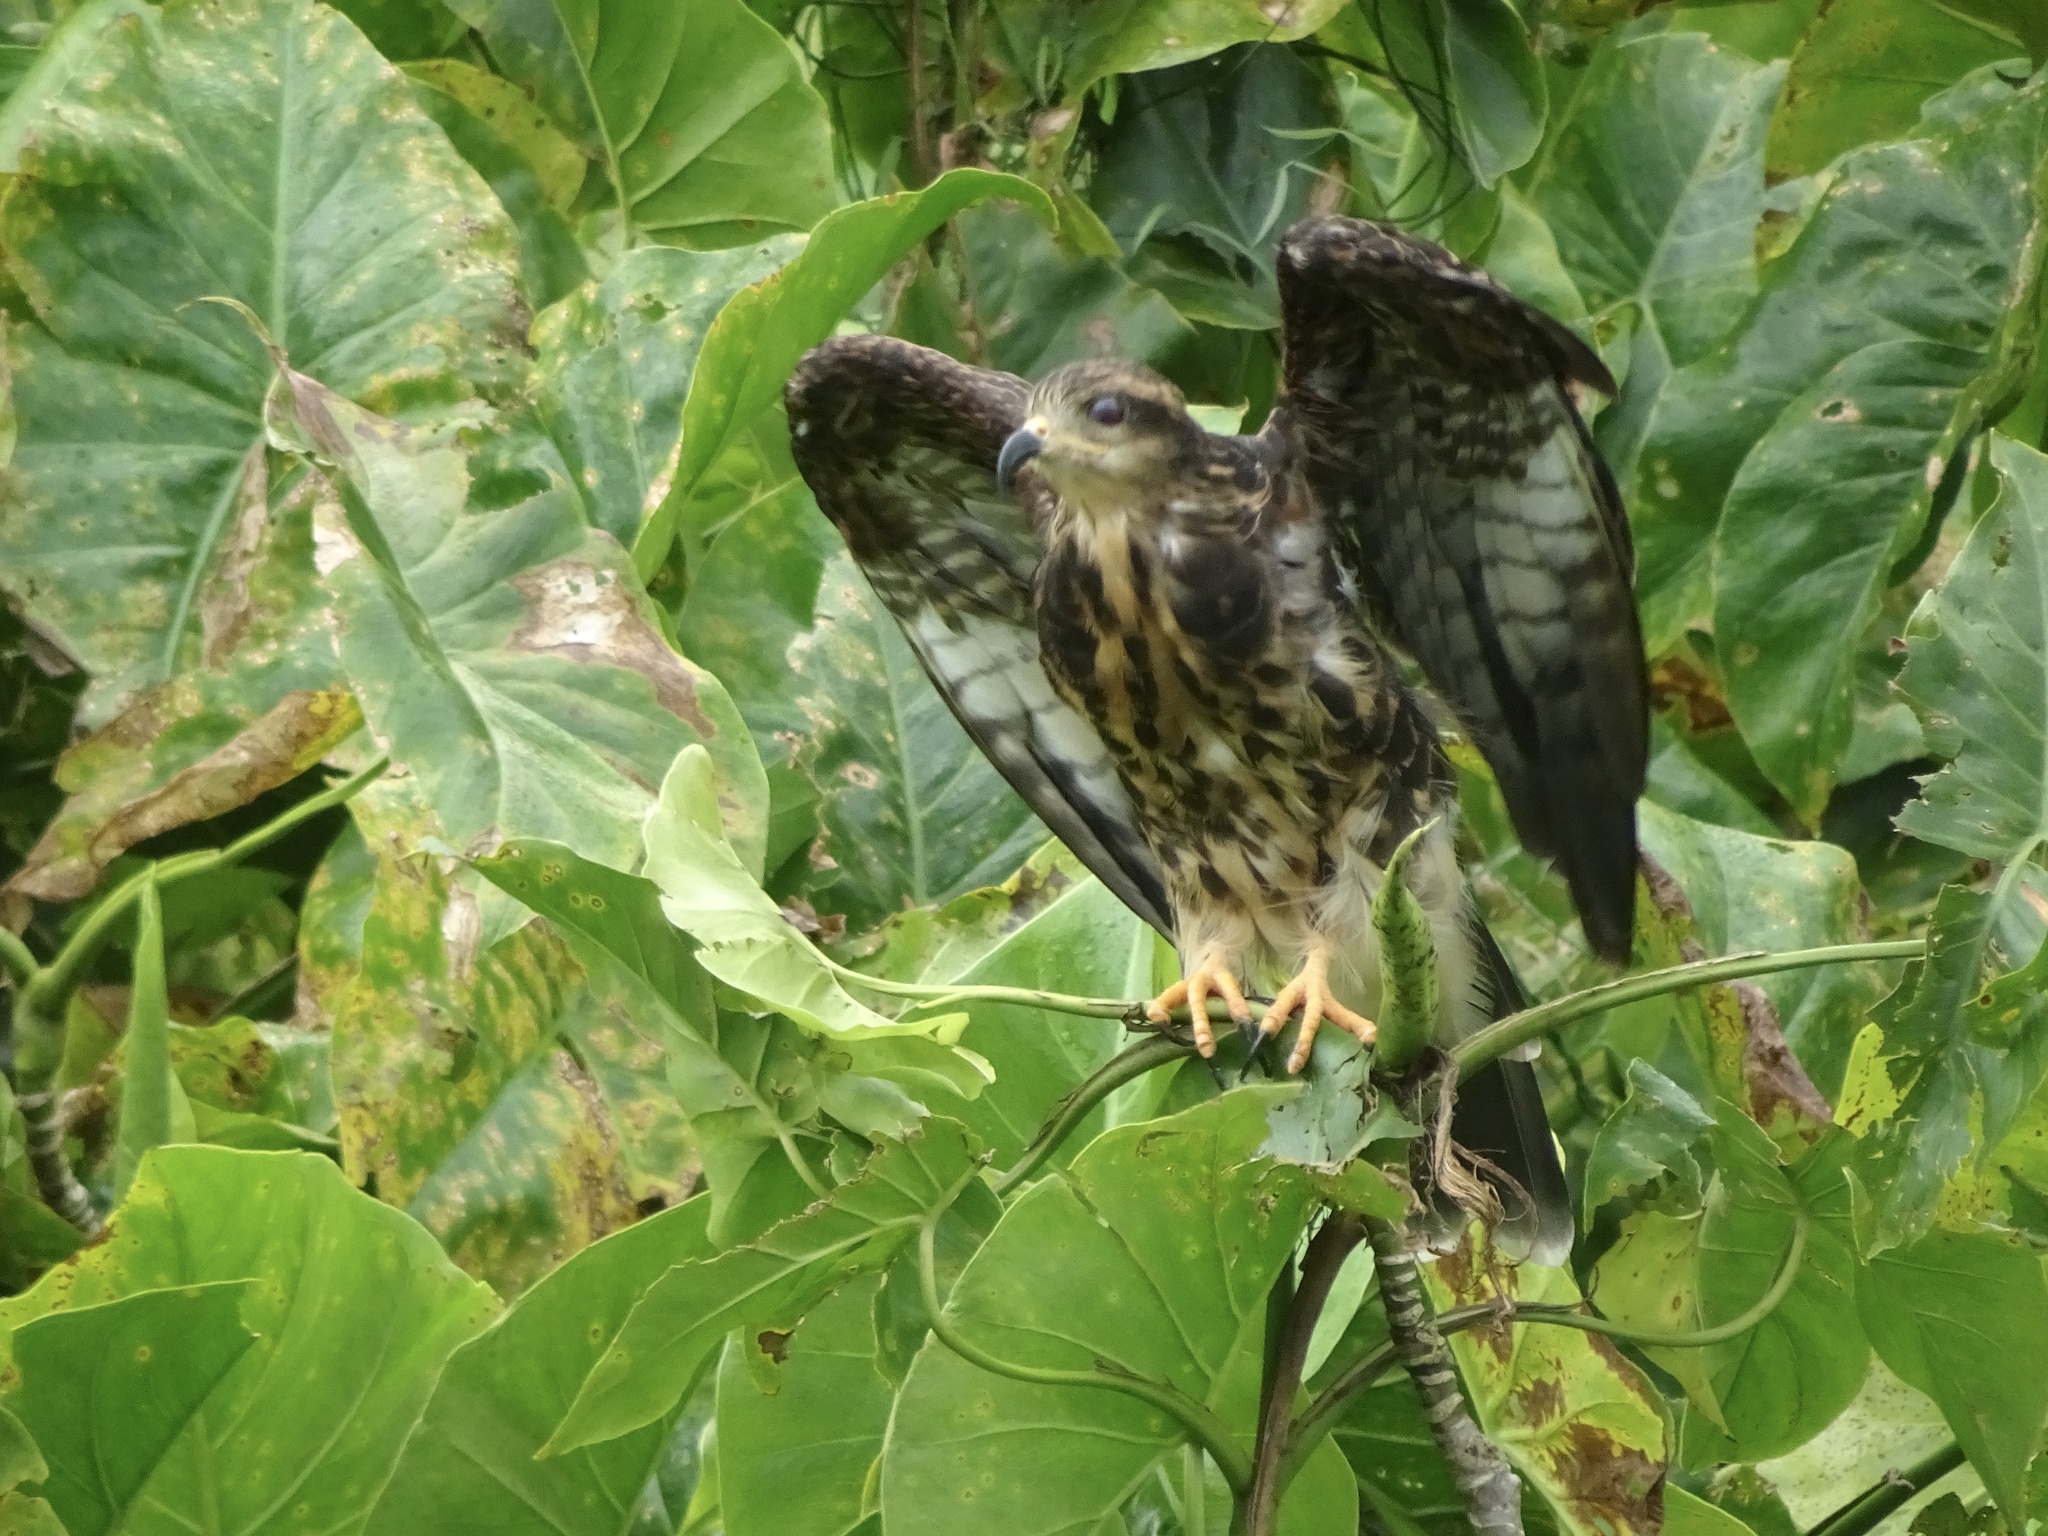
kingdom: Animalia
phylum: Chordata
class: Aves
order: Accipitriformes
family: Accipitridae
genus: Rostrhamus
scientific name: Rostrhamus sociabilis
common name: Snail kite
